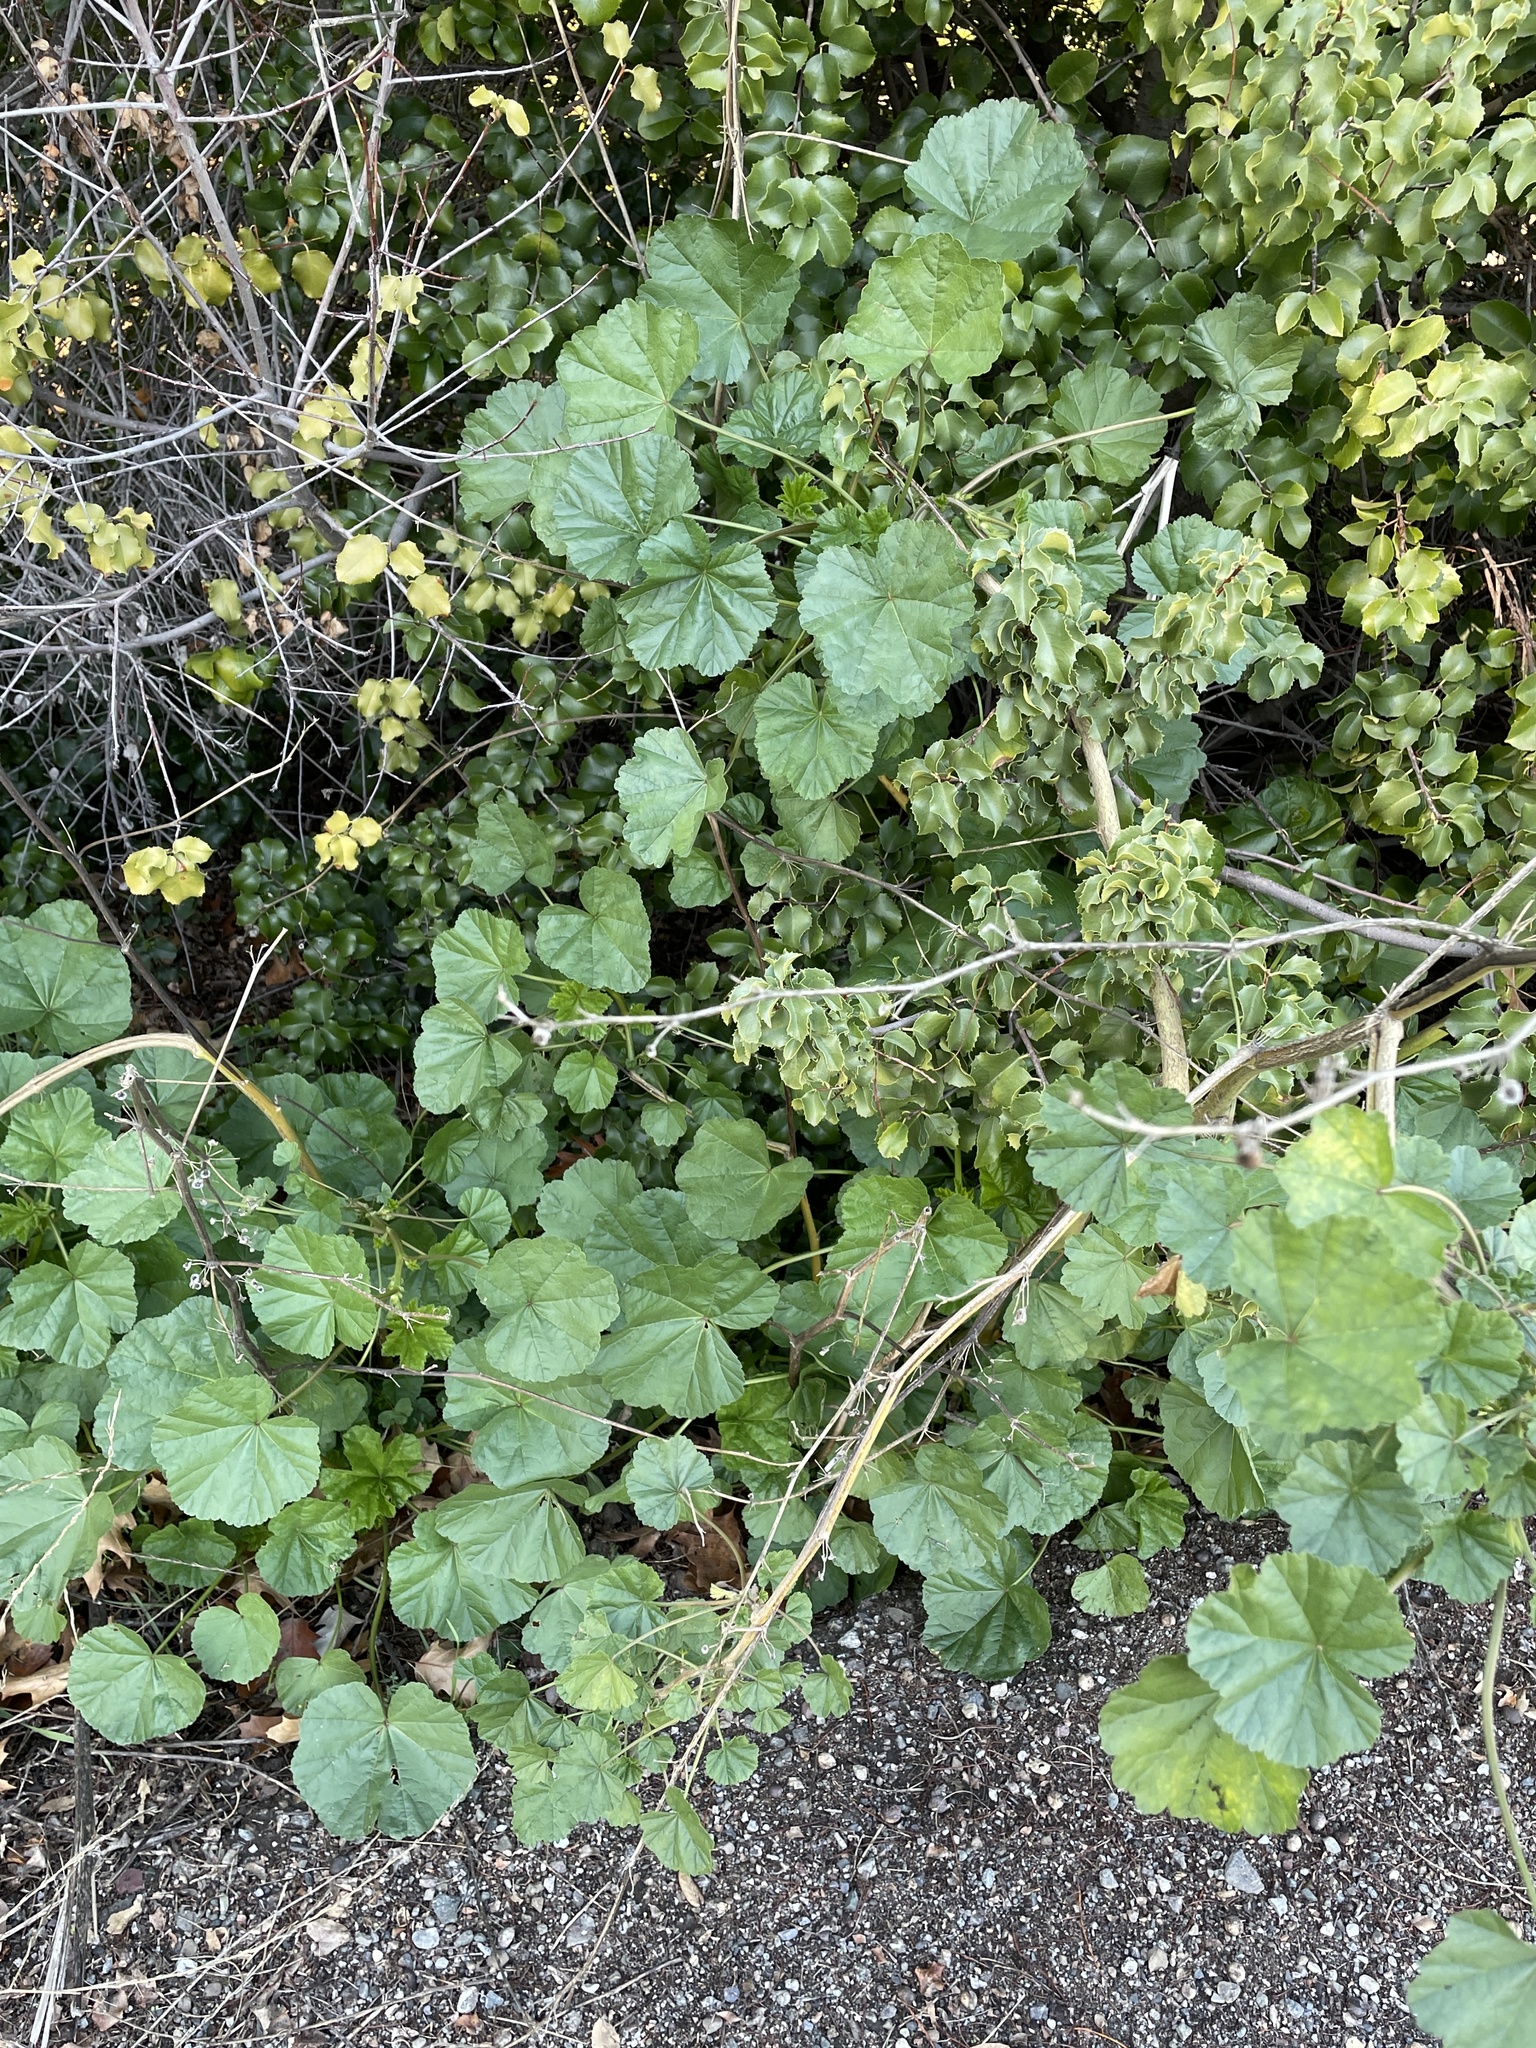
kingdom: Plantae
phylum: Tracheophyta
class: Magnoliopsida
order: Malvales
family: Malvaceae
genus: Malva
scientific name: Malva
